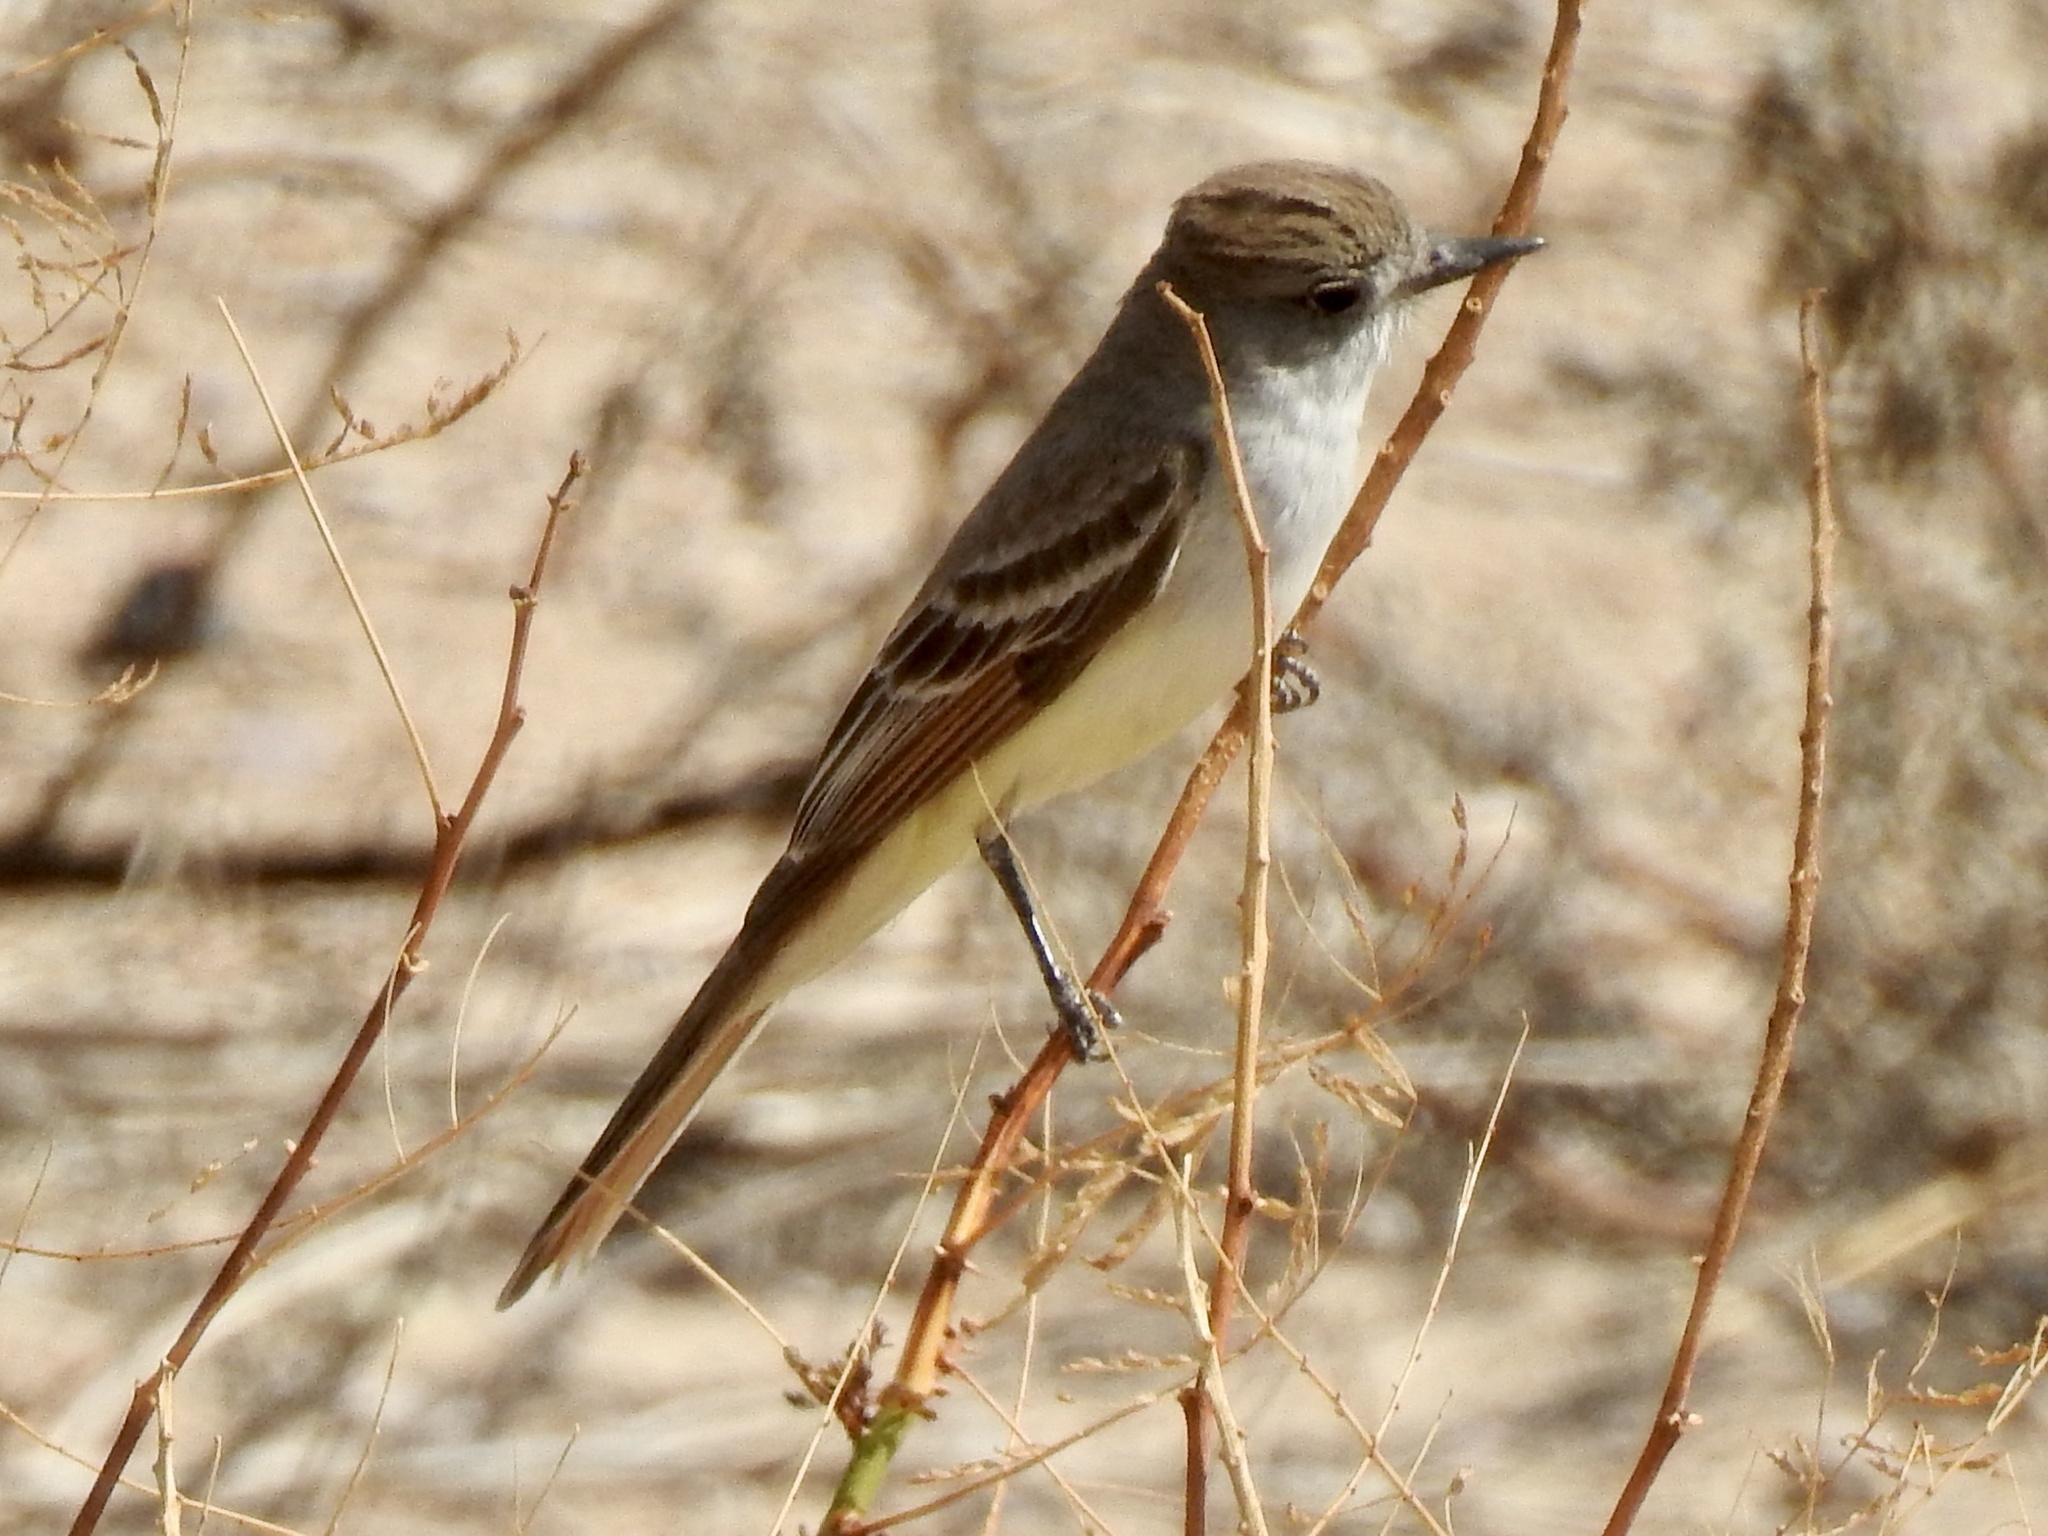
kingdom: Animalia
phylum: Chordata
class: Aves
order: Passeriformes
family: Tyrannidae
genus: Myiarchus
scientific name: Myiarchus cinerascens
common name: Ash-throated flycatcher
